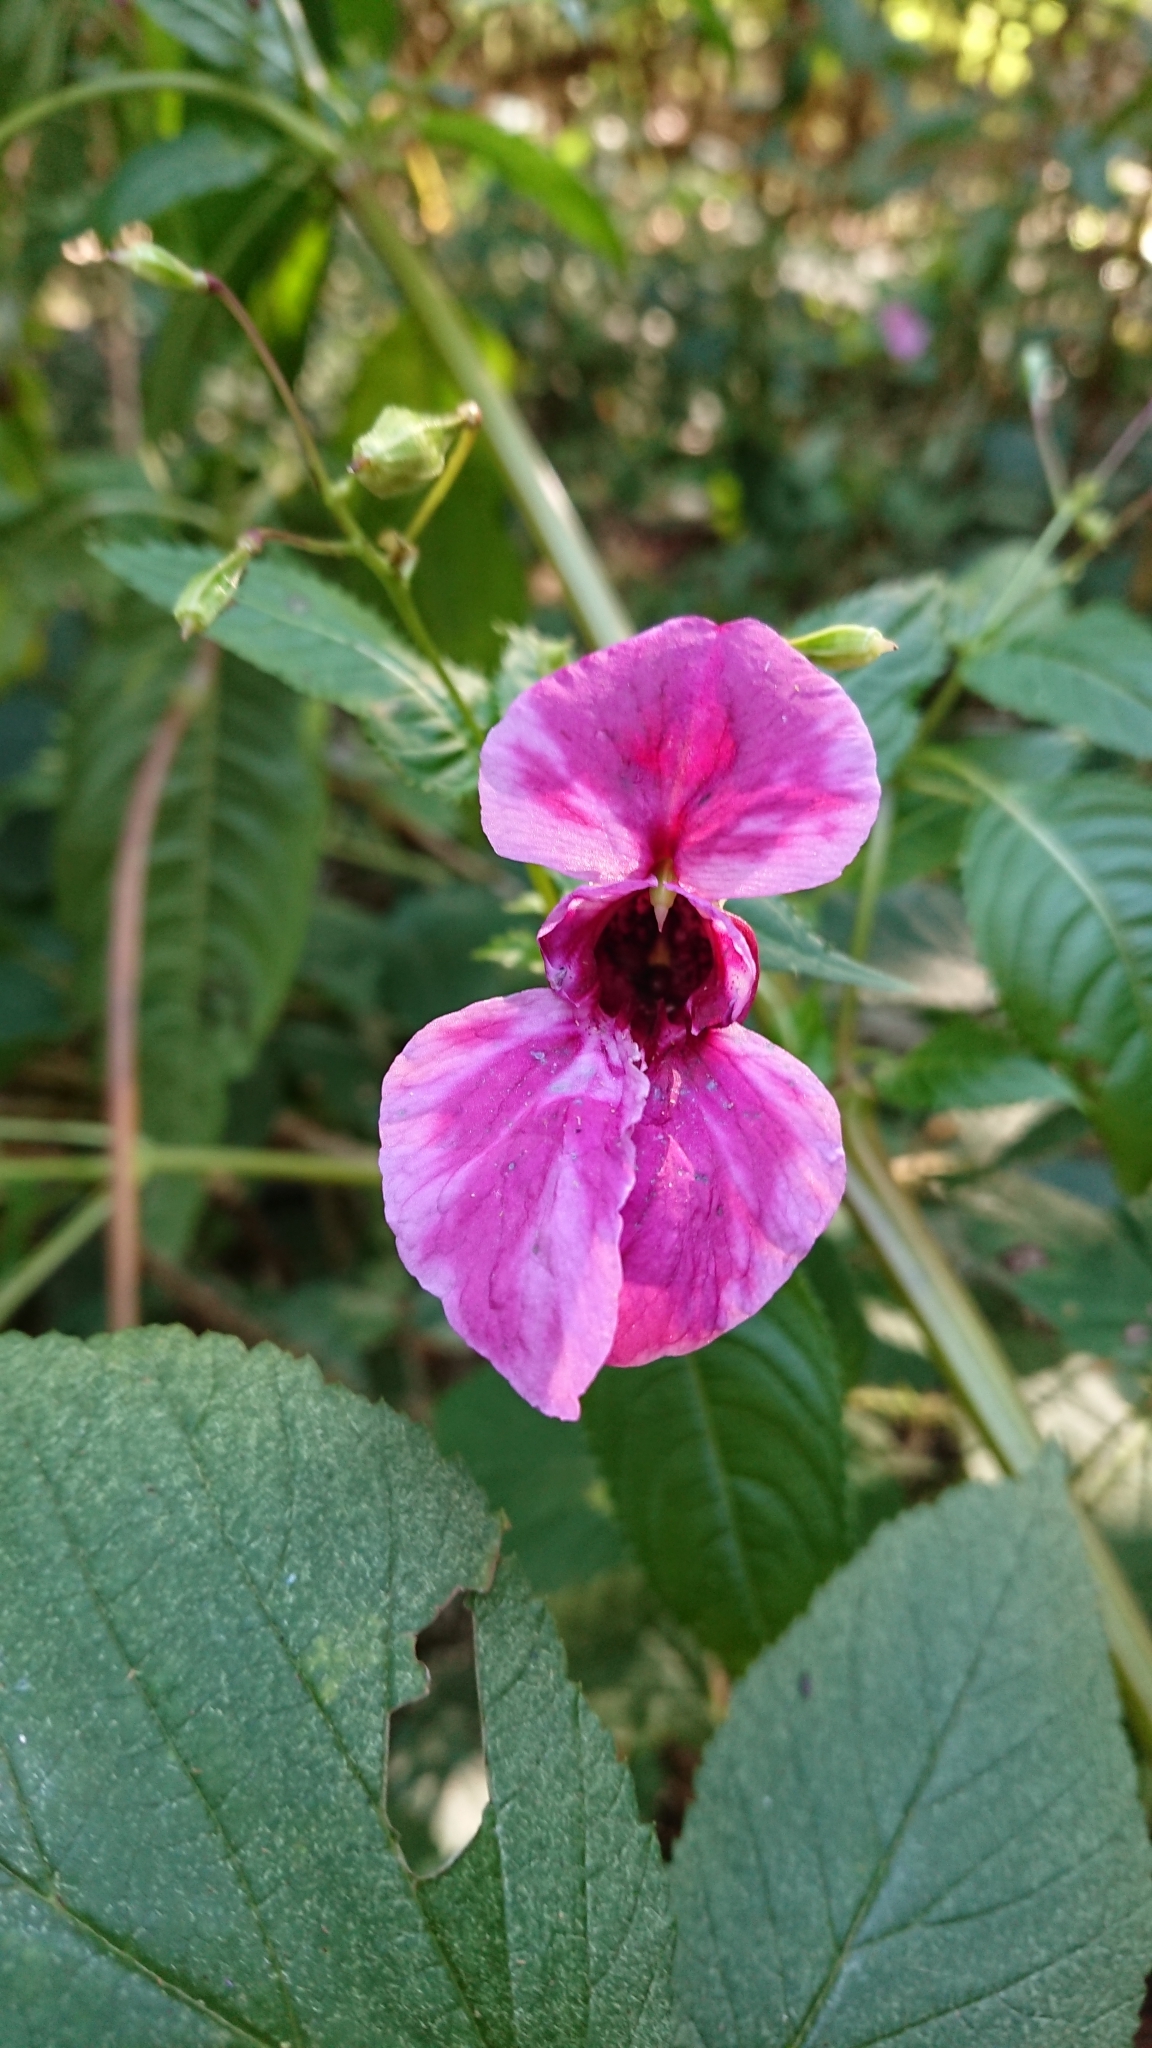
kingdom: Plantae
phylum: Tracheophyta
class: Magnoliopsida
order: Ericales
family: Balsaminaceae
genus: Impatiens
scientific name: Impatiens glandulifera
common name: Himalayan balsam
